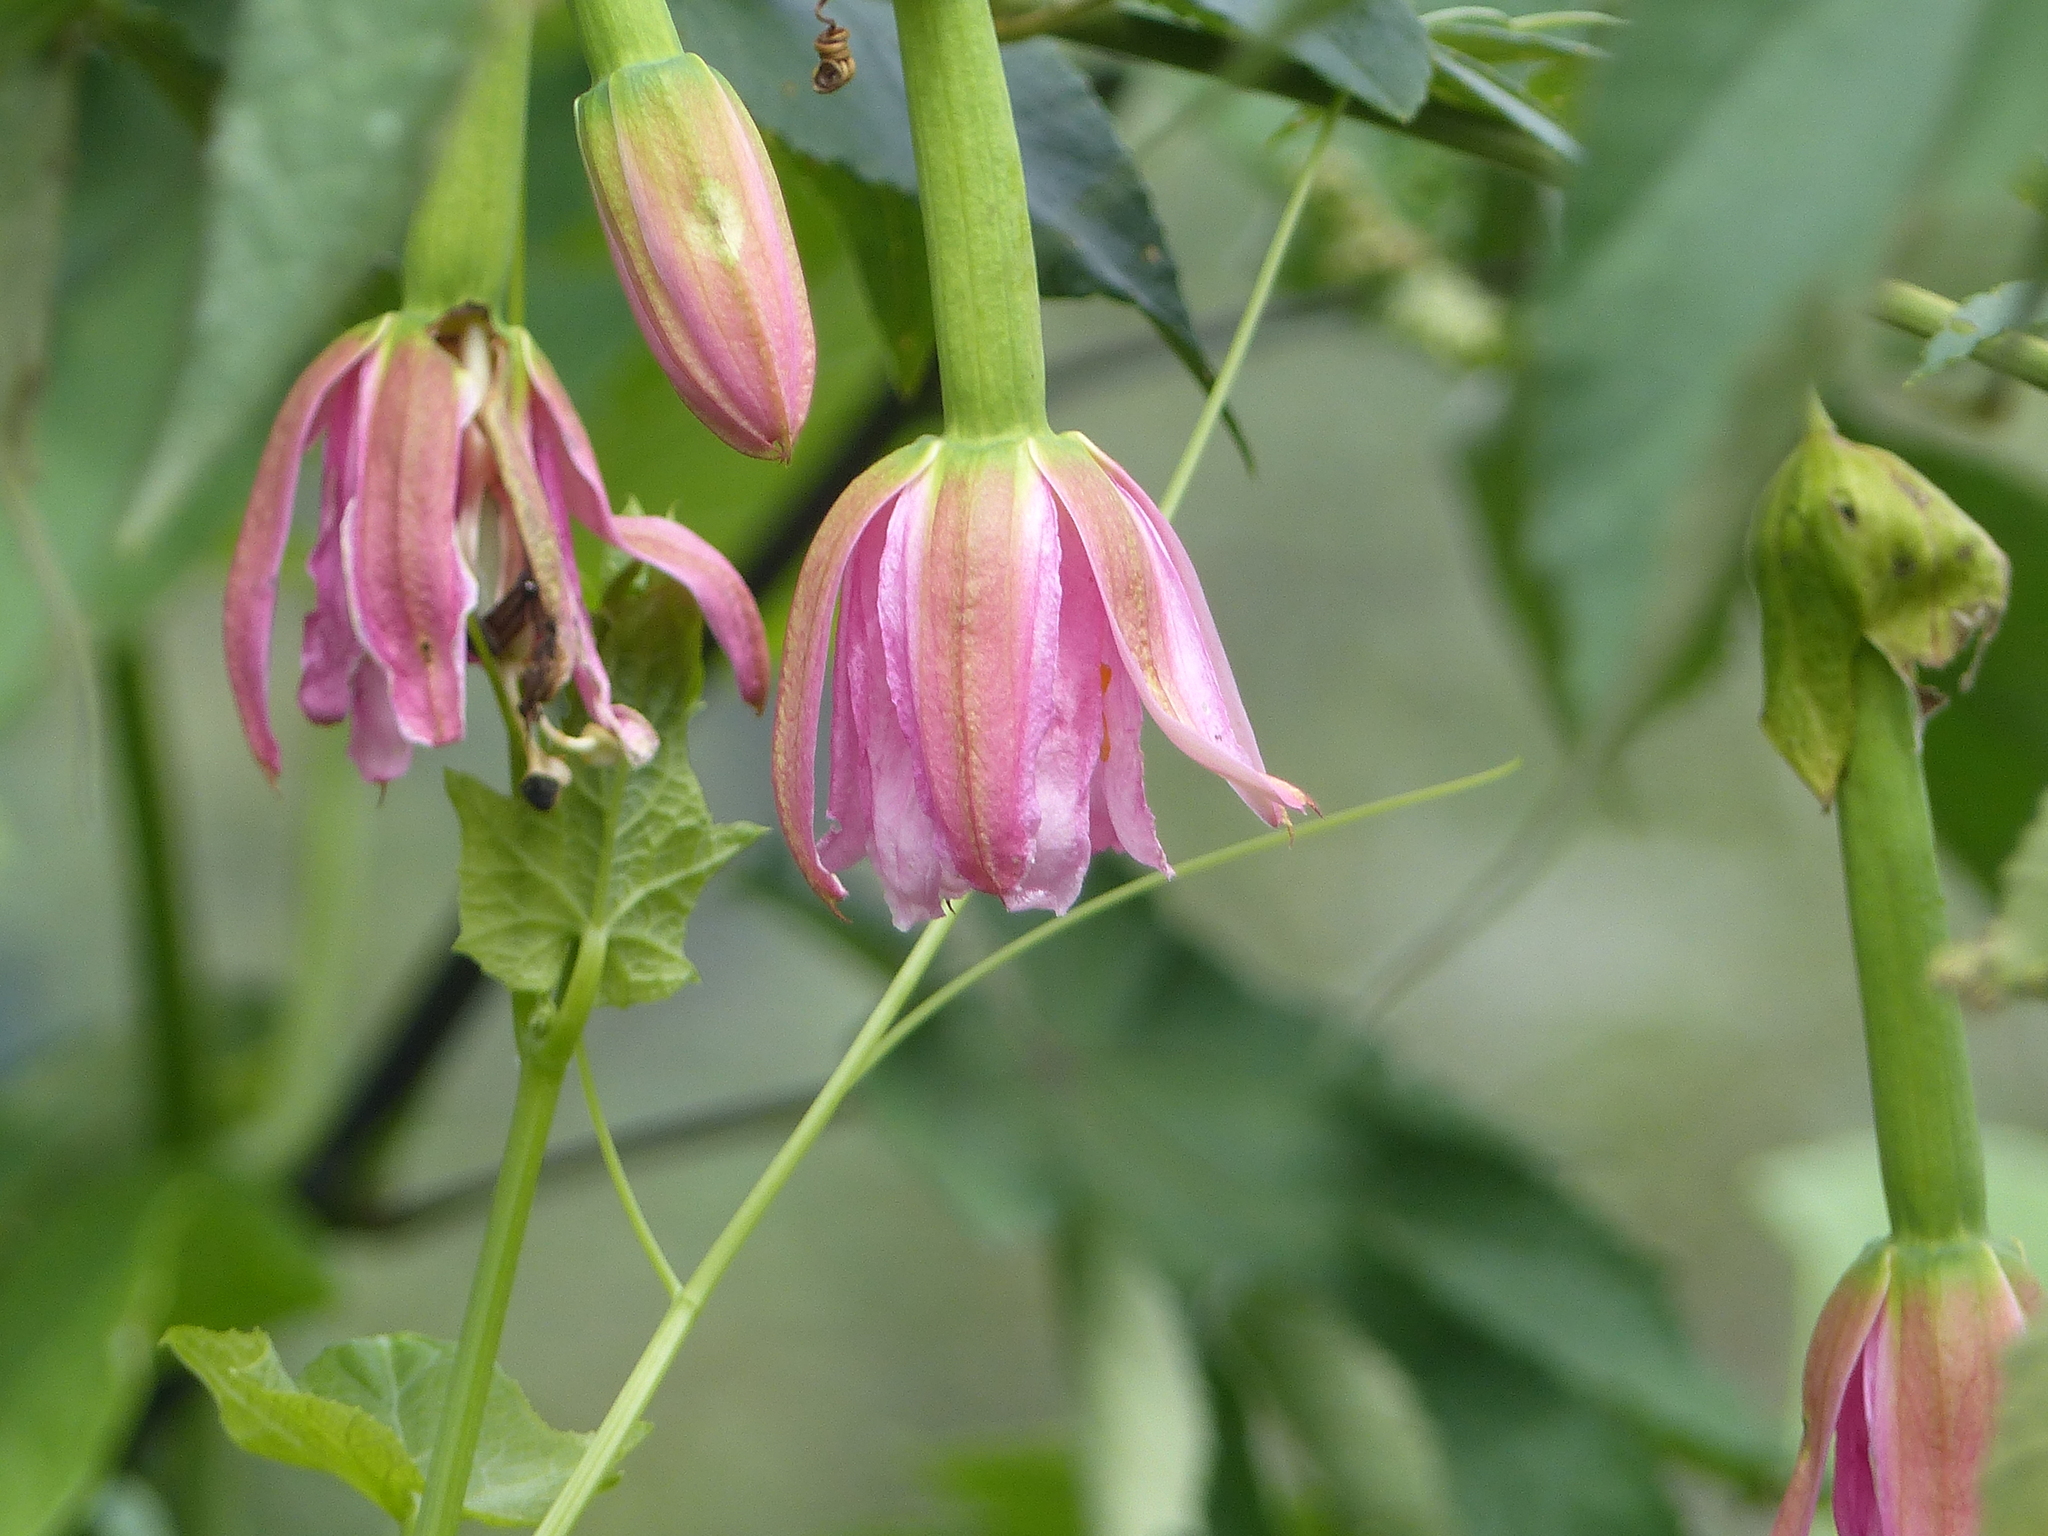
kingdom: Plantae
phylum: Tracheophyta
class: Magnoliopsida
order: Malpighiales
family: Passifloraceae
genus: Passiflora
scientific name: Passiflora tarminiana
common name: Banana poka
